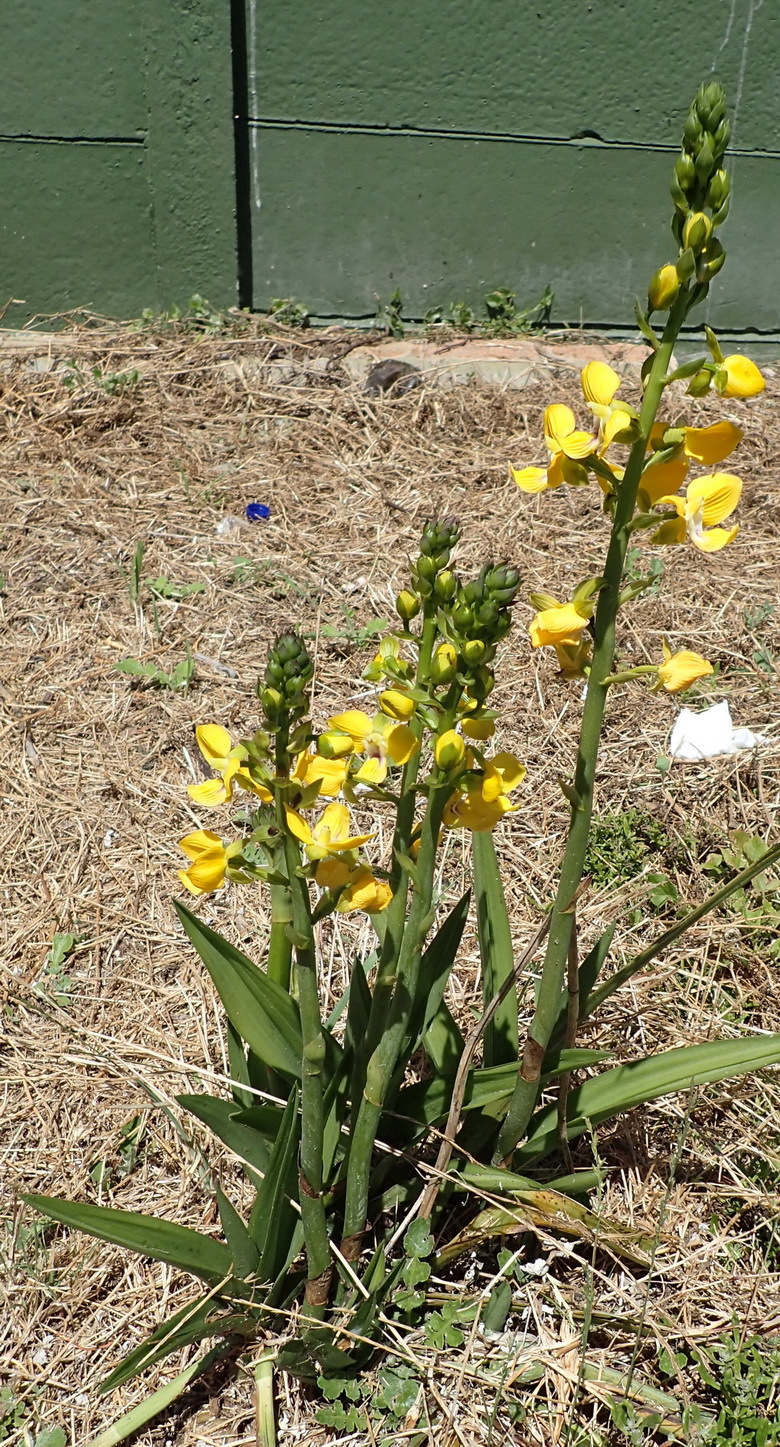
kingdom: Plantae
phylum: Tracheophyta
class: Liliopsida
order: Asparagales
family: Orchidaceae
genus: Eulophia
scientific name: Eulophia speciosa
